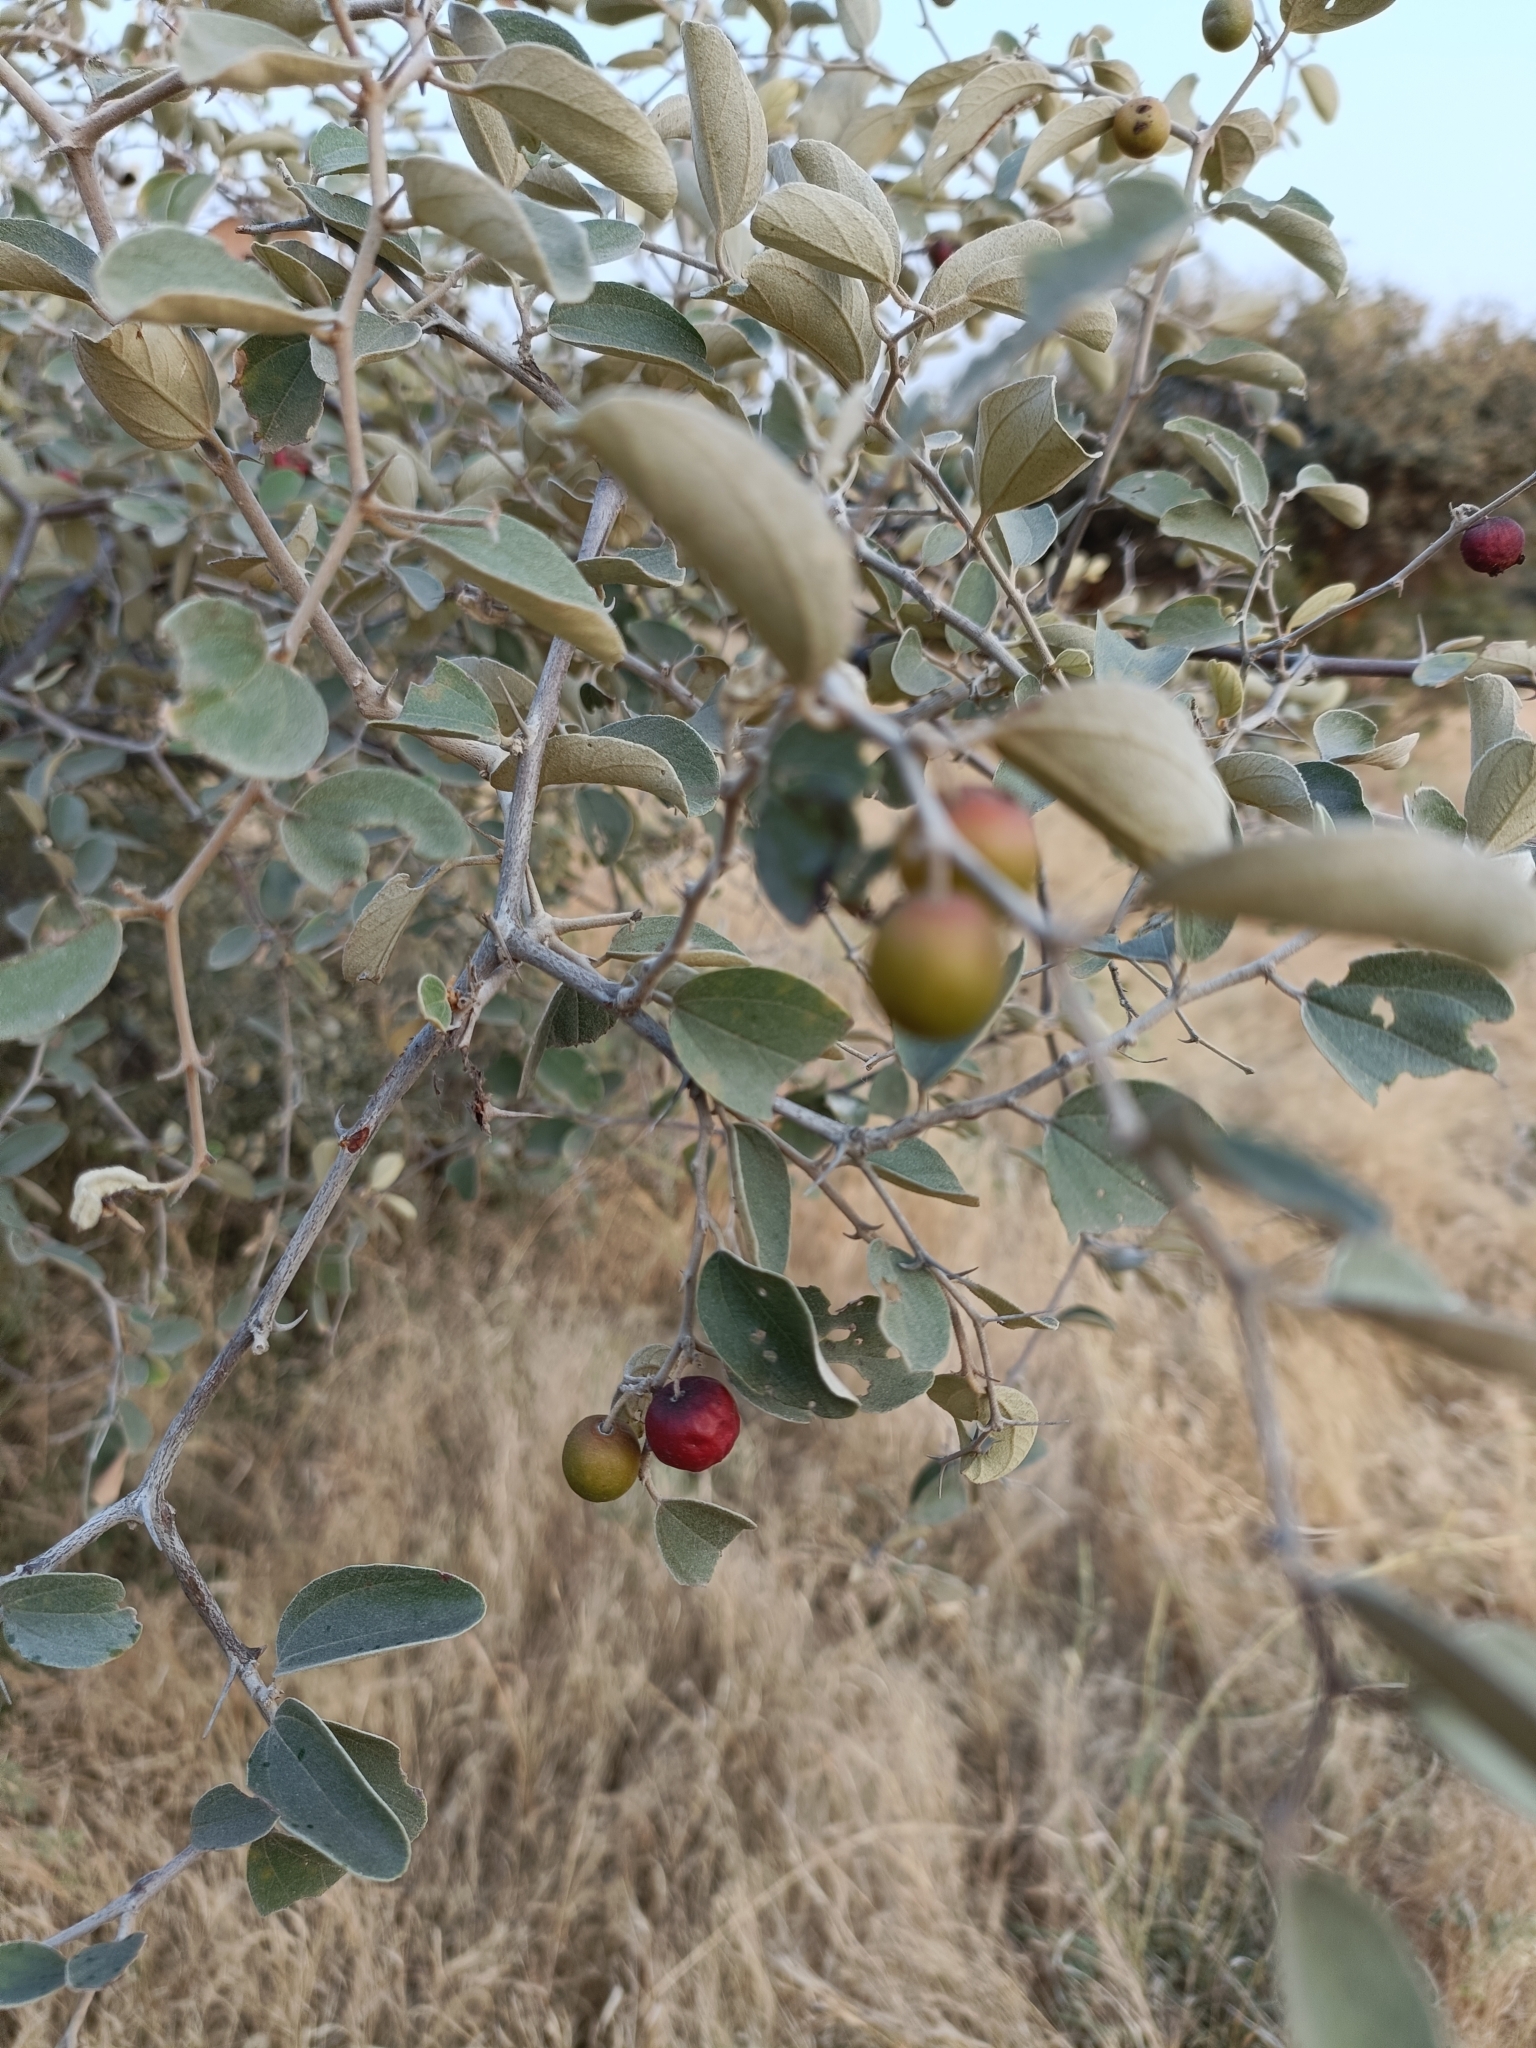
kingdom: Plantae
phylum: Tracheophyta
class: Magnoliopsida
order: Rosales
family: Rhamnaceae
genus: Ziziphus
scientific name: Ziziphus nummularia
